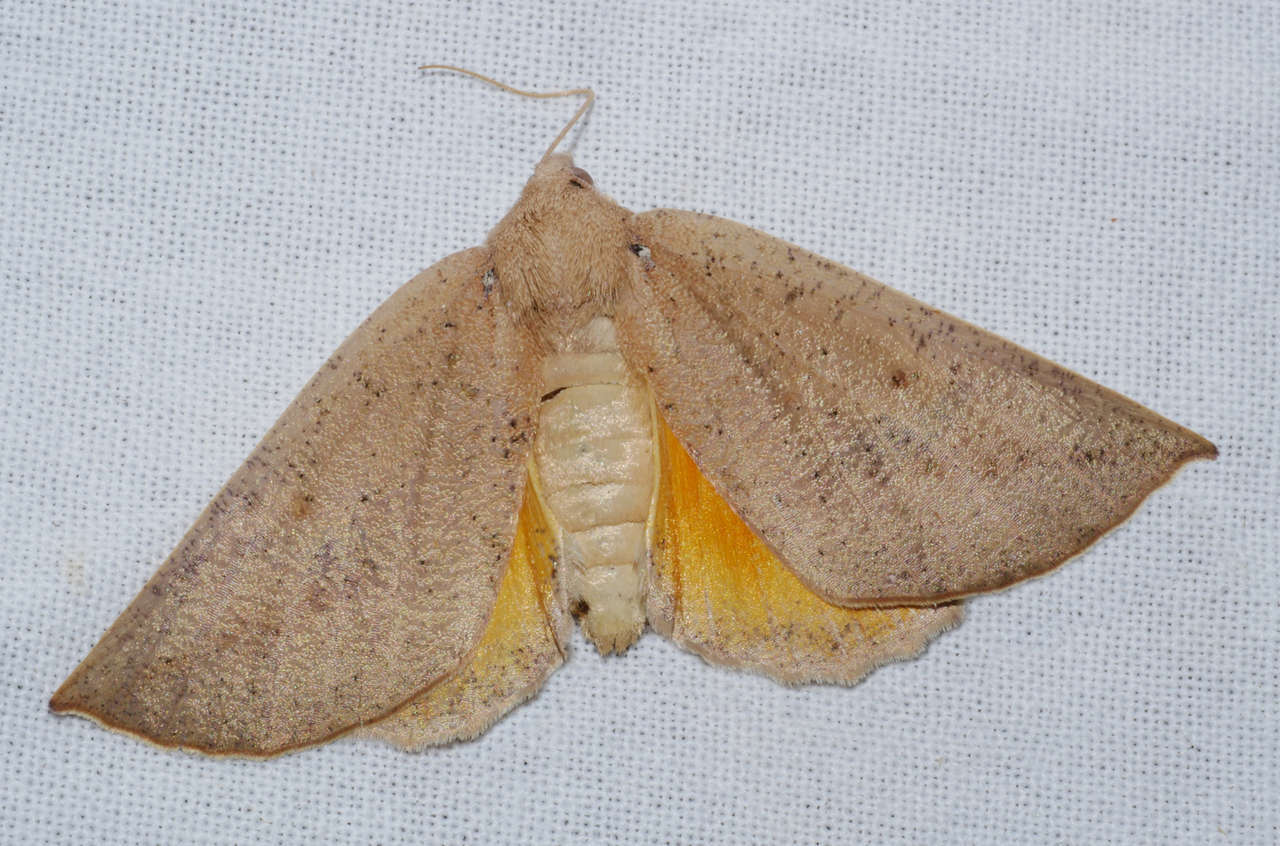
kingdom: Animalia
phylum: Arthropoda
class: Insecta
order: Lepidoptera
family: Geometridae
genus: Mnesampela
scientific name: Mnesampela heliochrysa
